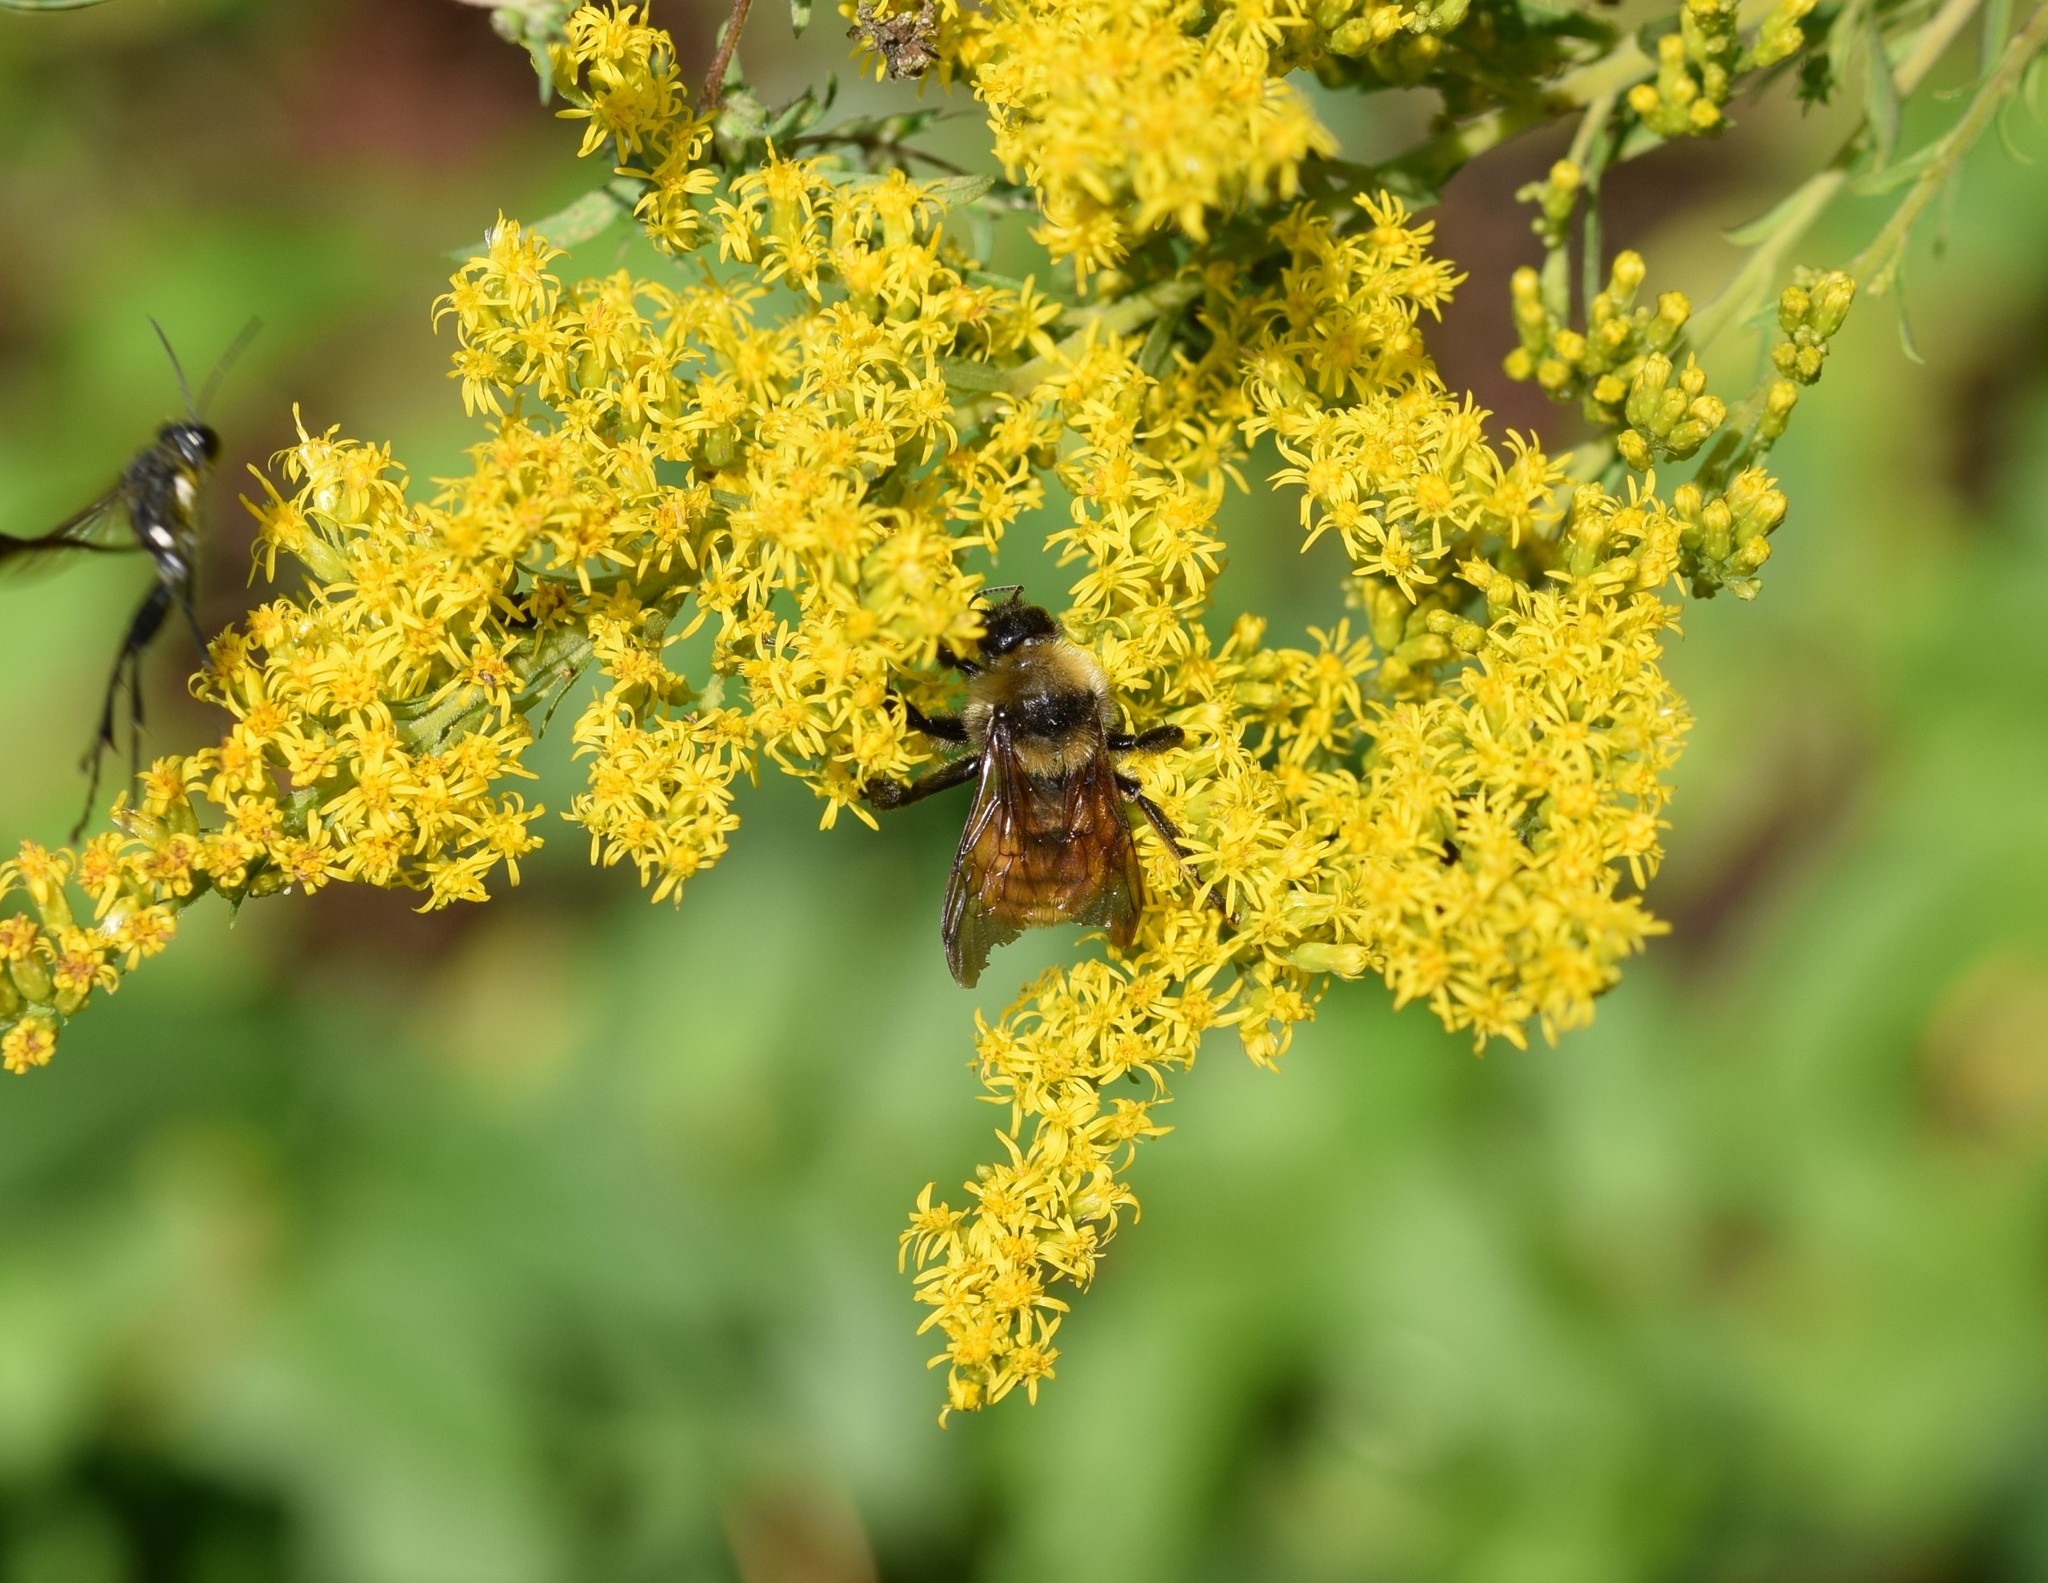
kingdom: Animalia
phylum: Arthropoda
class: Insecta
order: Hymenoptera
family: Apidae
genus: Bombus
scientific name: Bombus pensylvanicus
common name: Bumble bee
